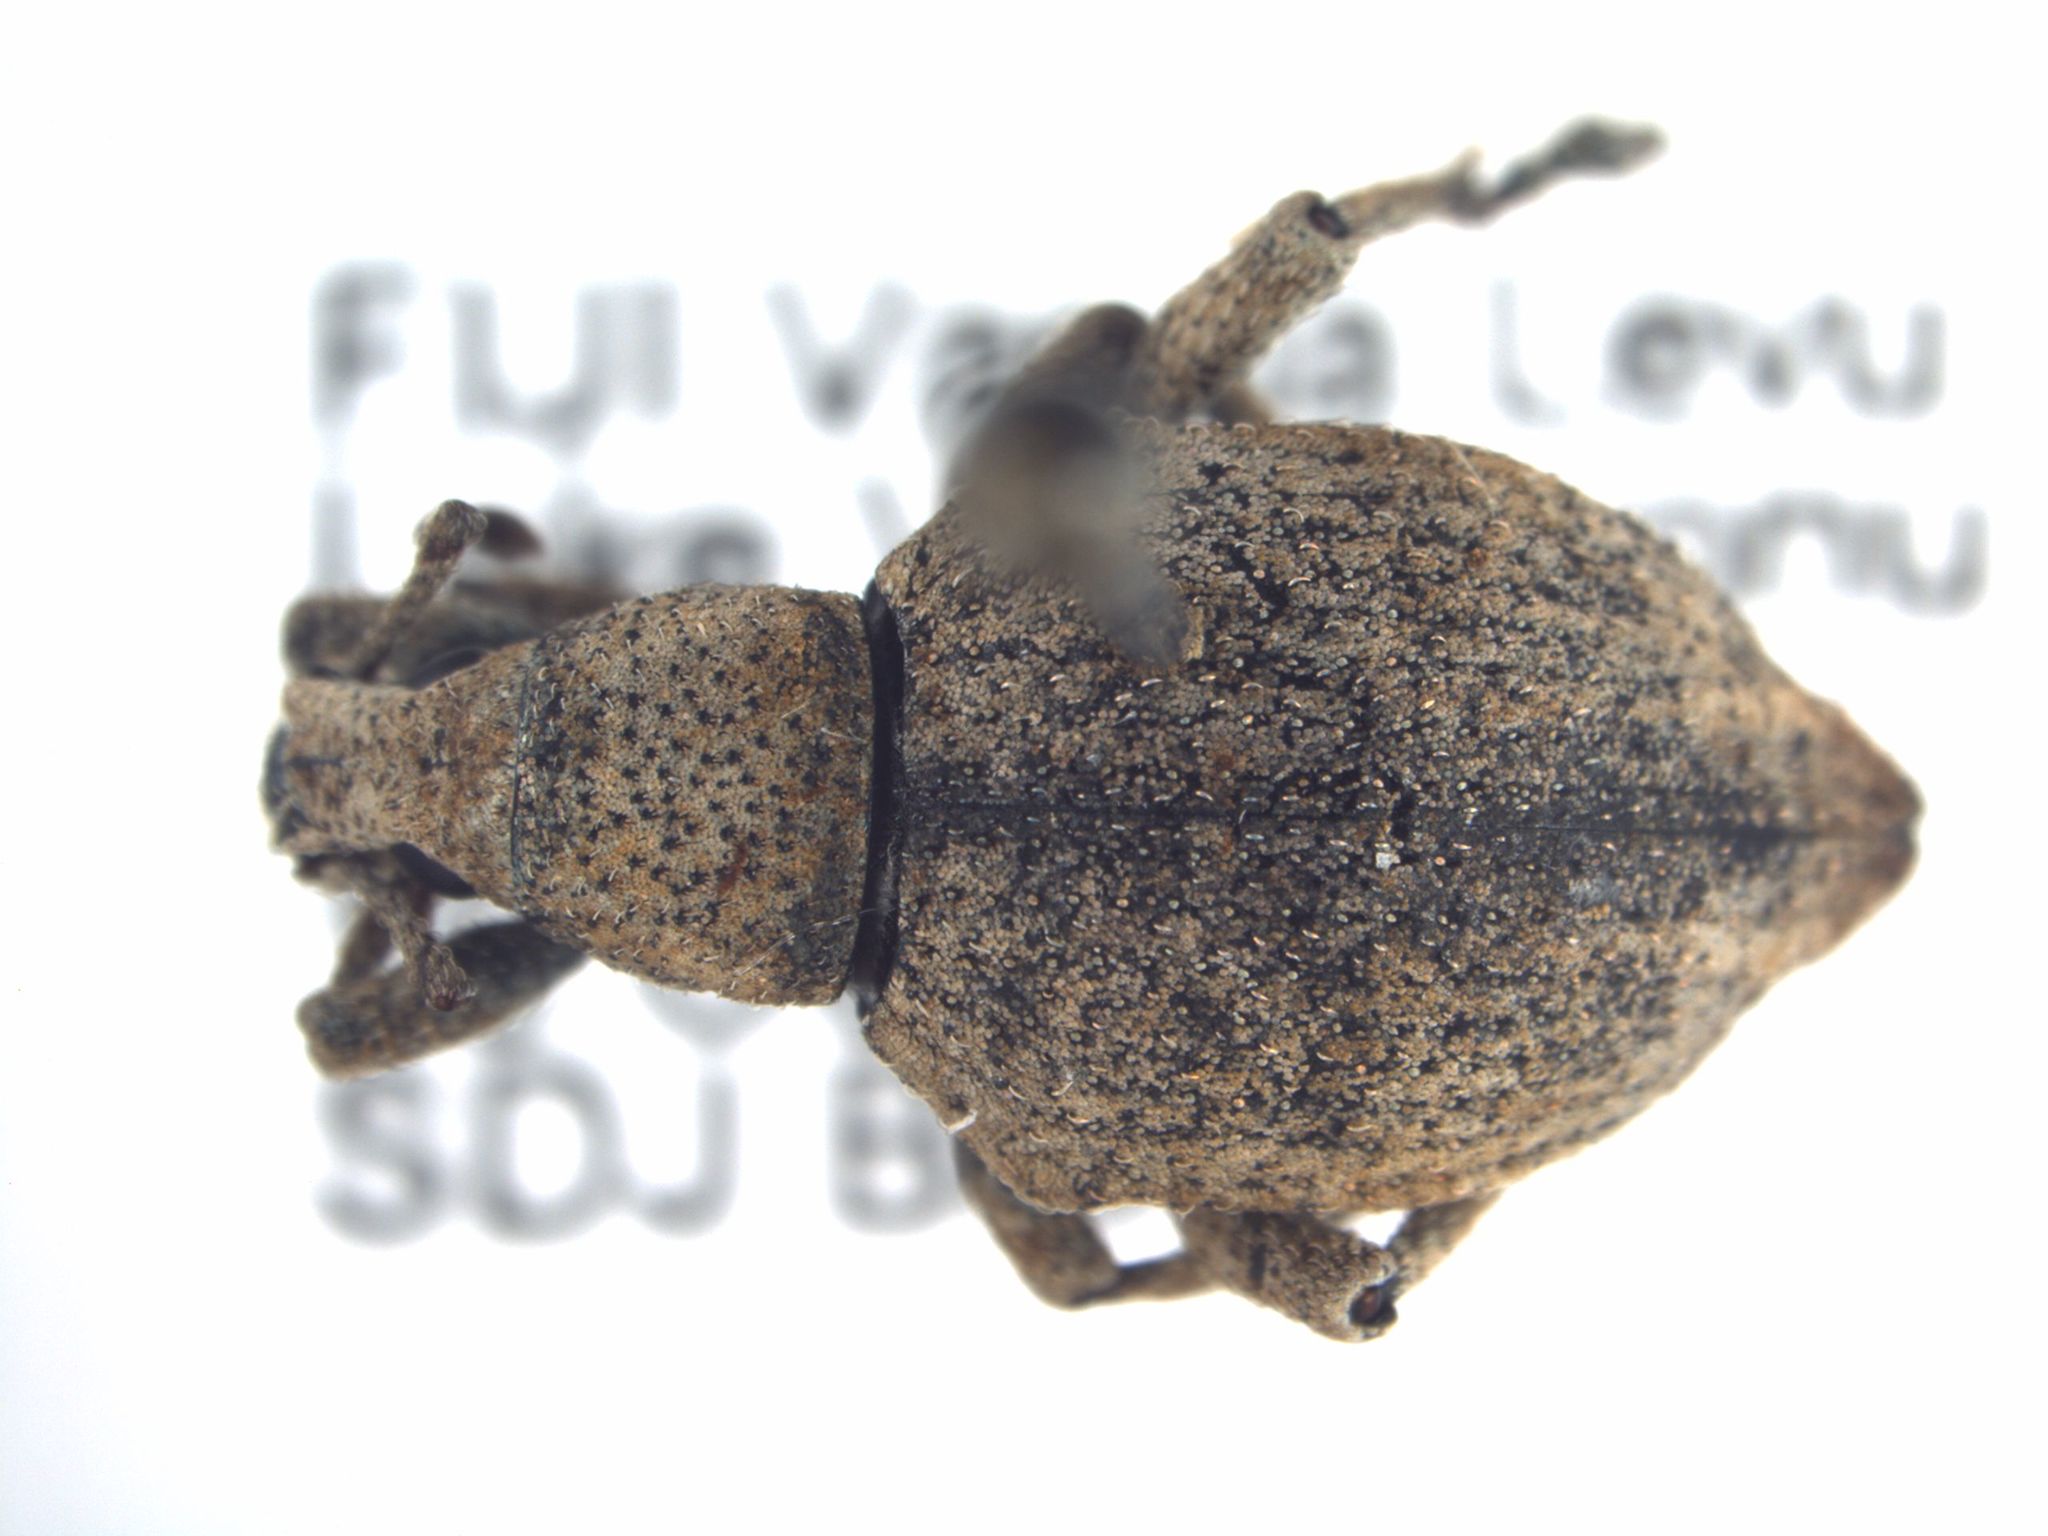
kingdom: Animalia
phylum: Arthropoda
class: Insecta
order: Coleoptera
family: Curculionidae
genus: Elytrurus
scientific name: Elytrurus griseus
